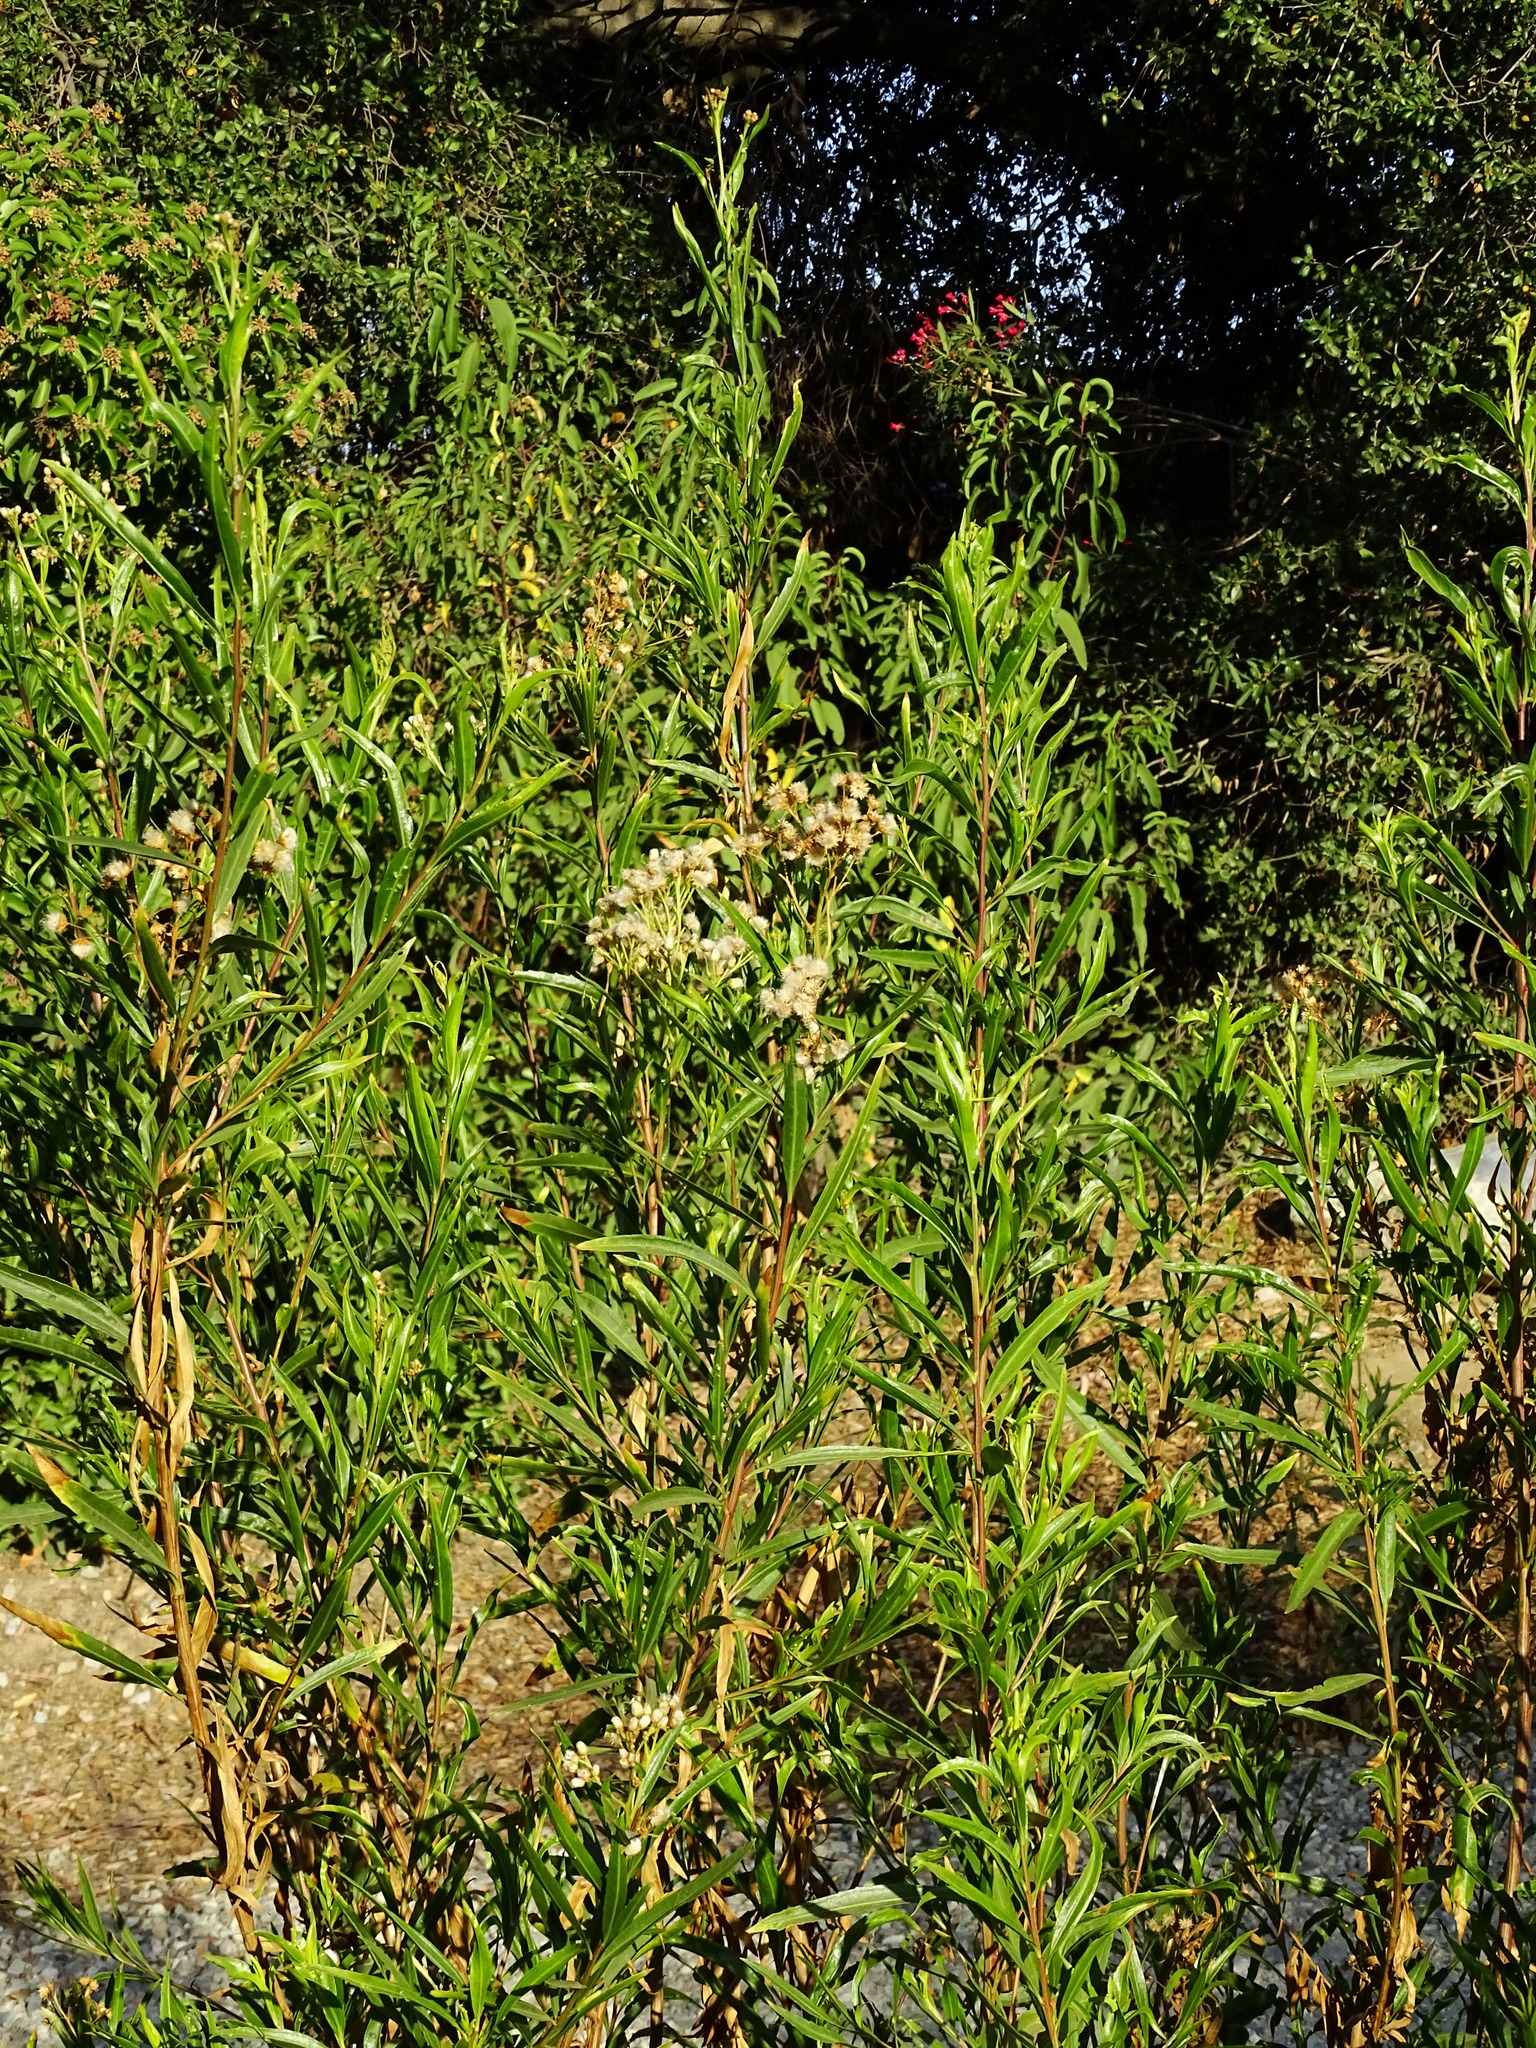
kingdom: Plantae
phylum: Tracheophyta
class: Magnoliopsida
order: Asterales
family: Asteraceae
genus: Baccharis
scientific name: Baccharis salicifolia
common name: Sticky baccharis
